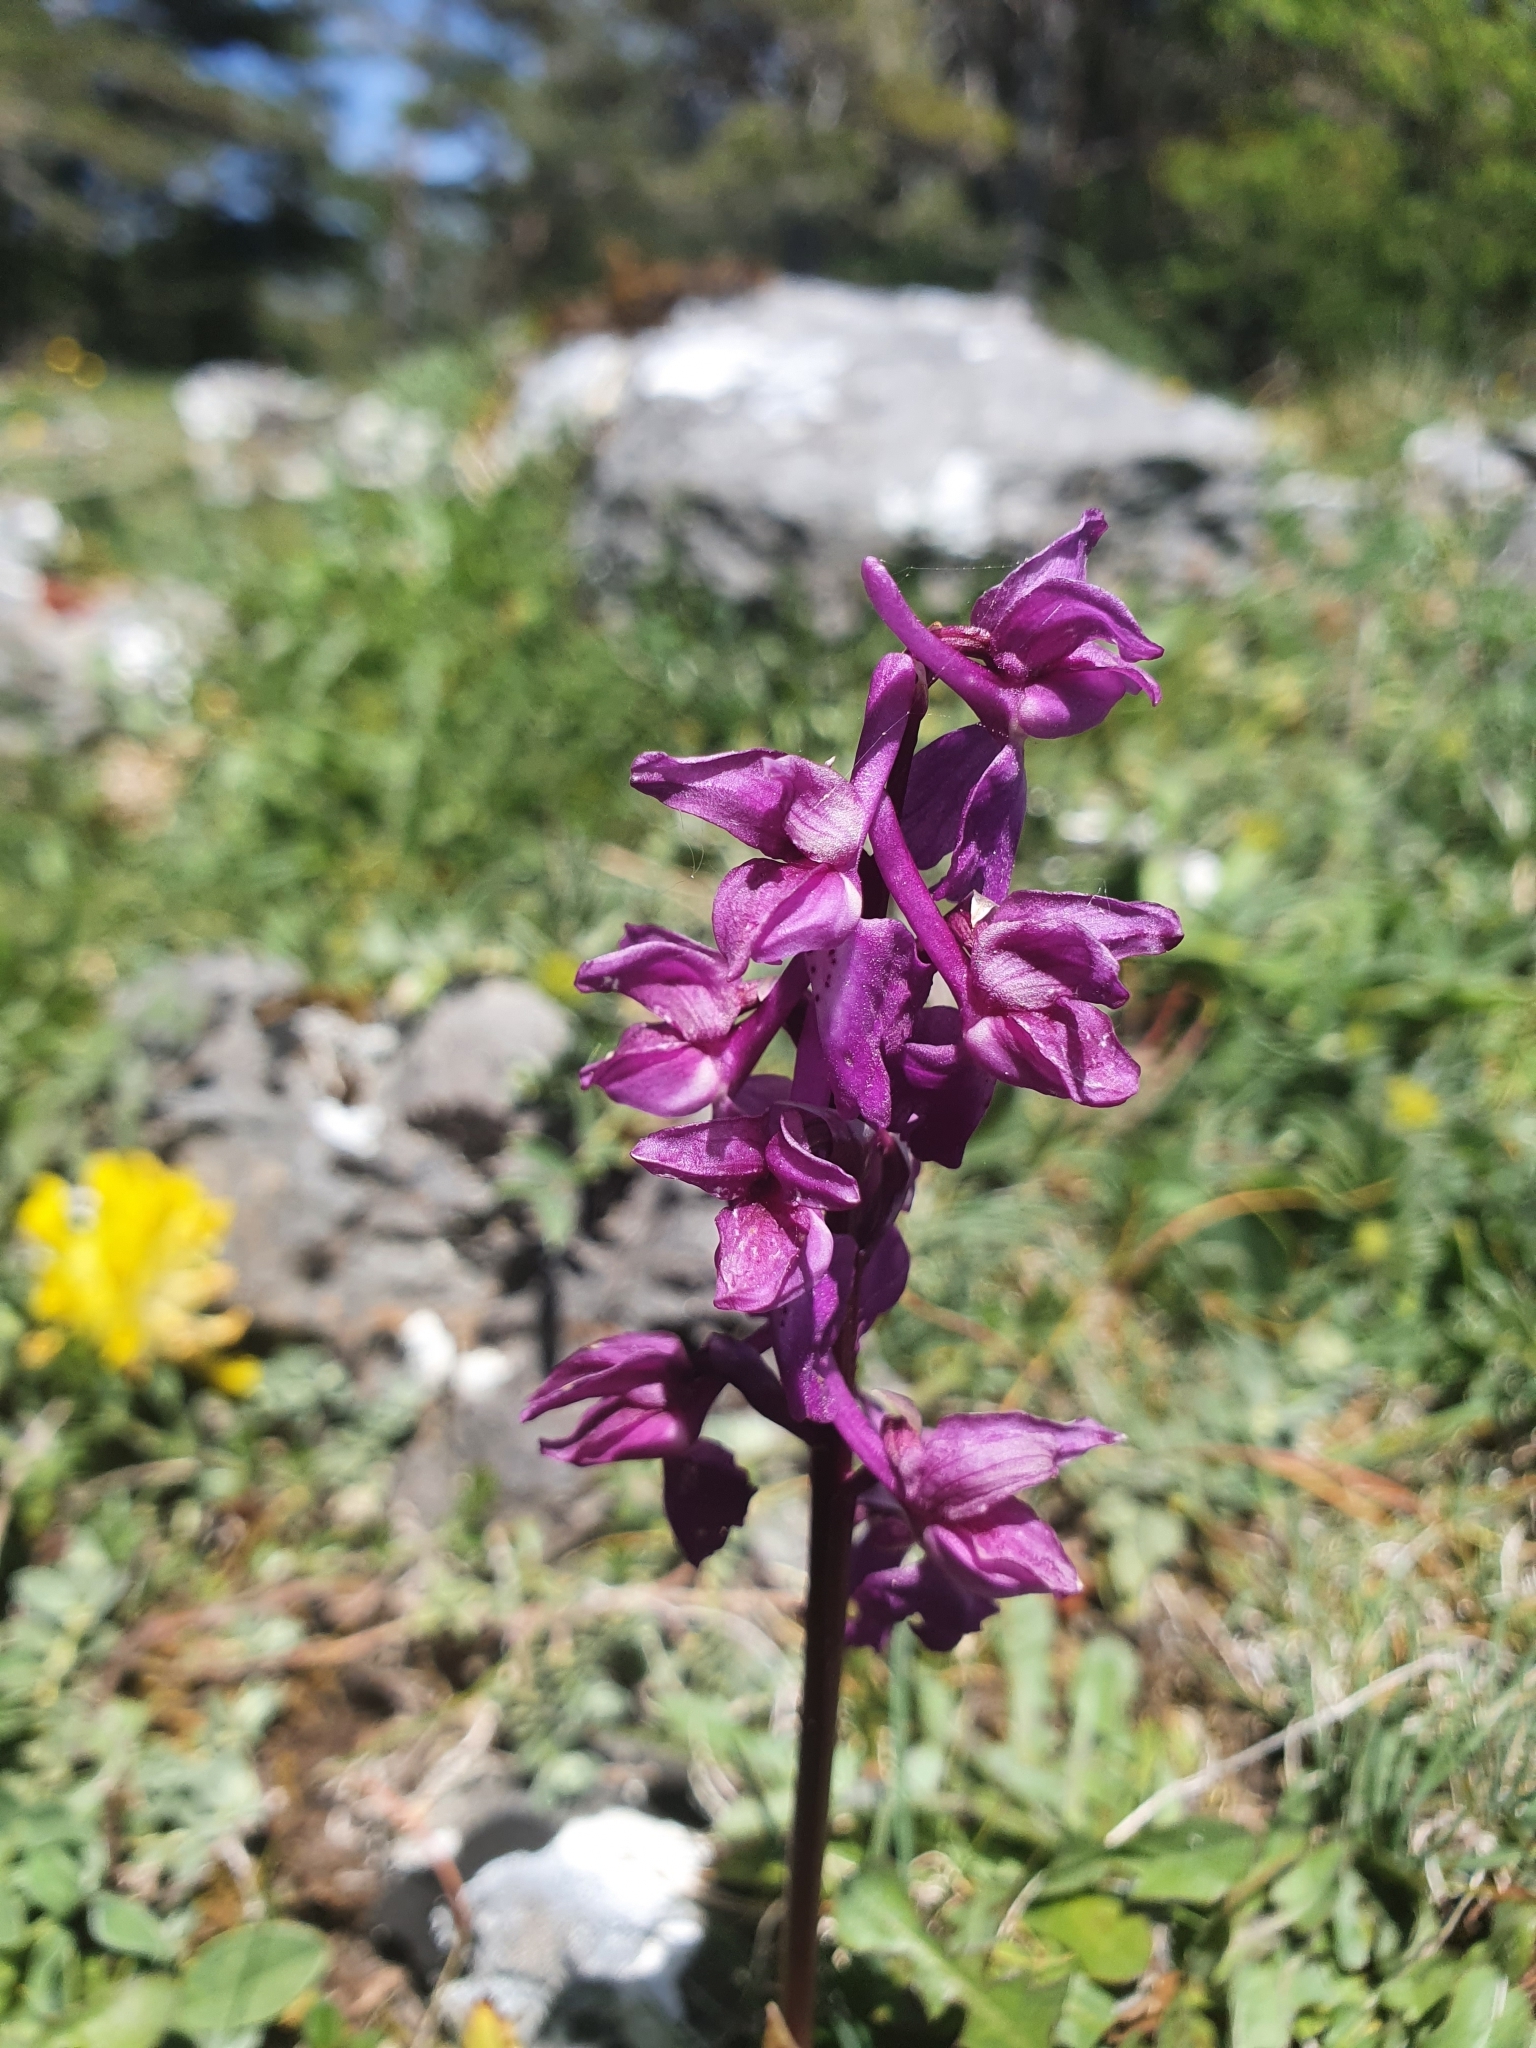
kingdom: Plantae
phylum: Tracheophyta
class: Liliopsida
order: Asparagales
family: Orchidaceae
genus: Orchis
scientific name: Orchis mascula
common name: Early-purple orchid
